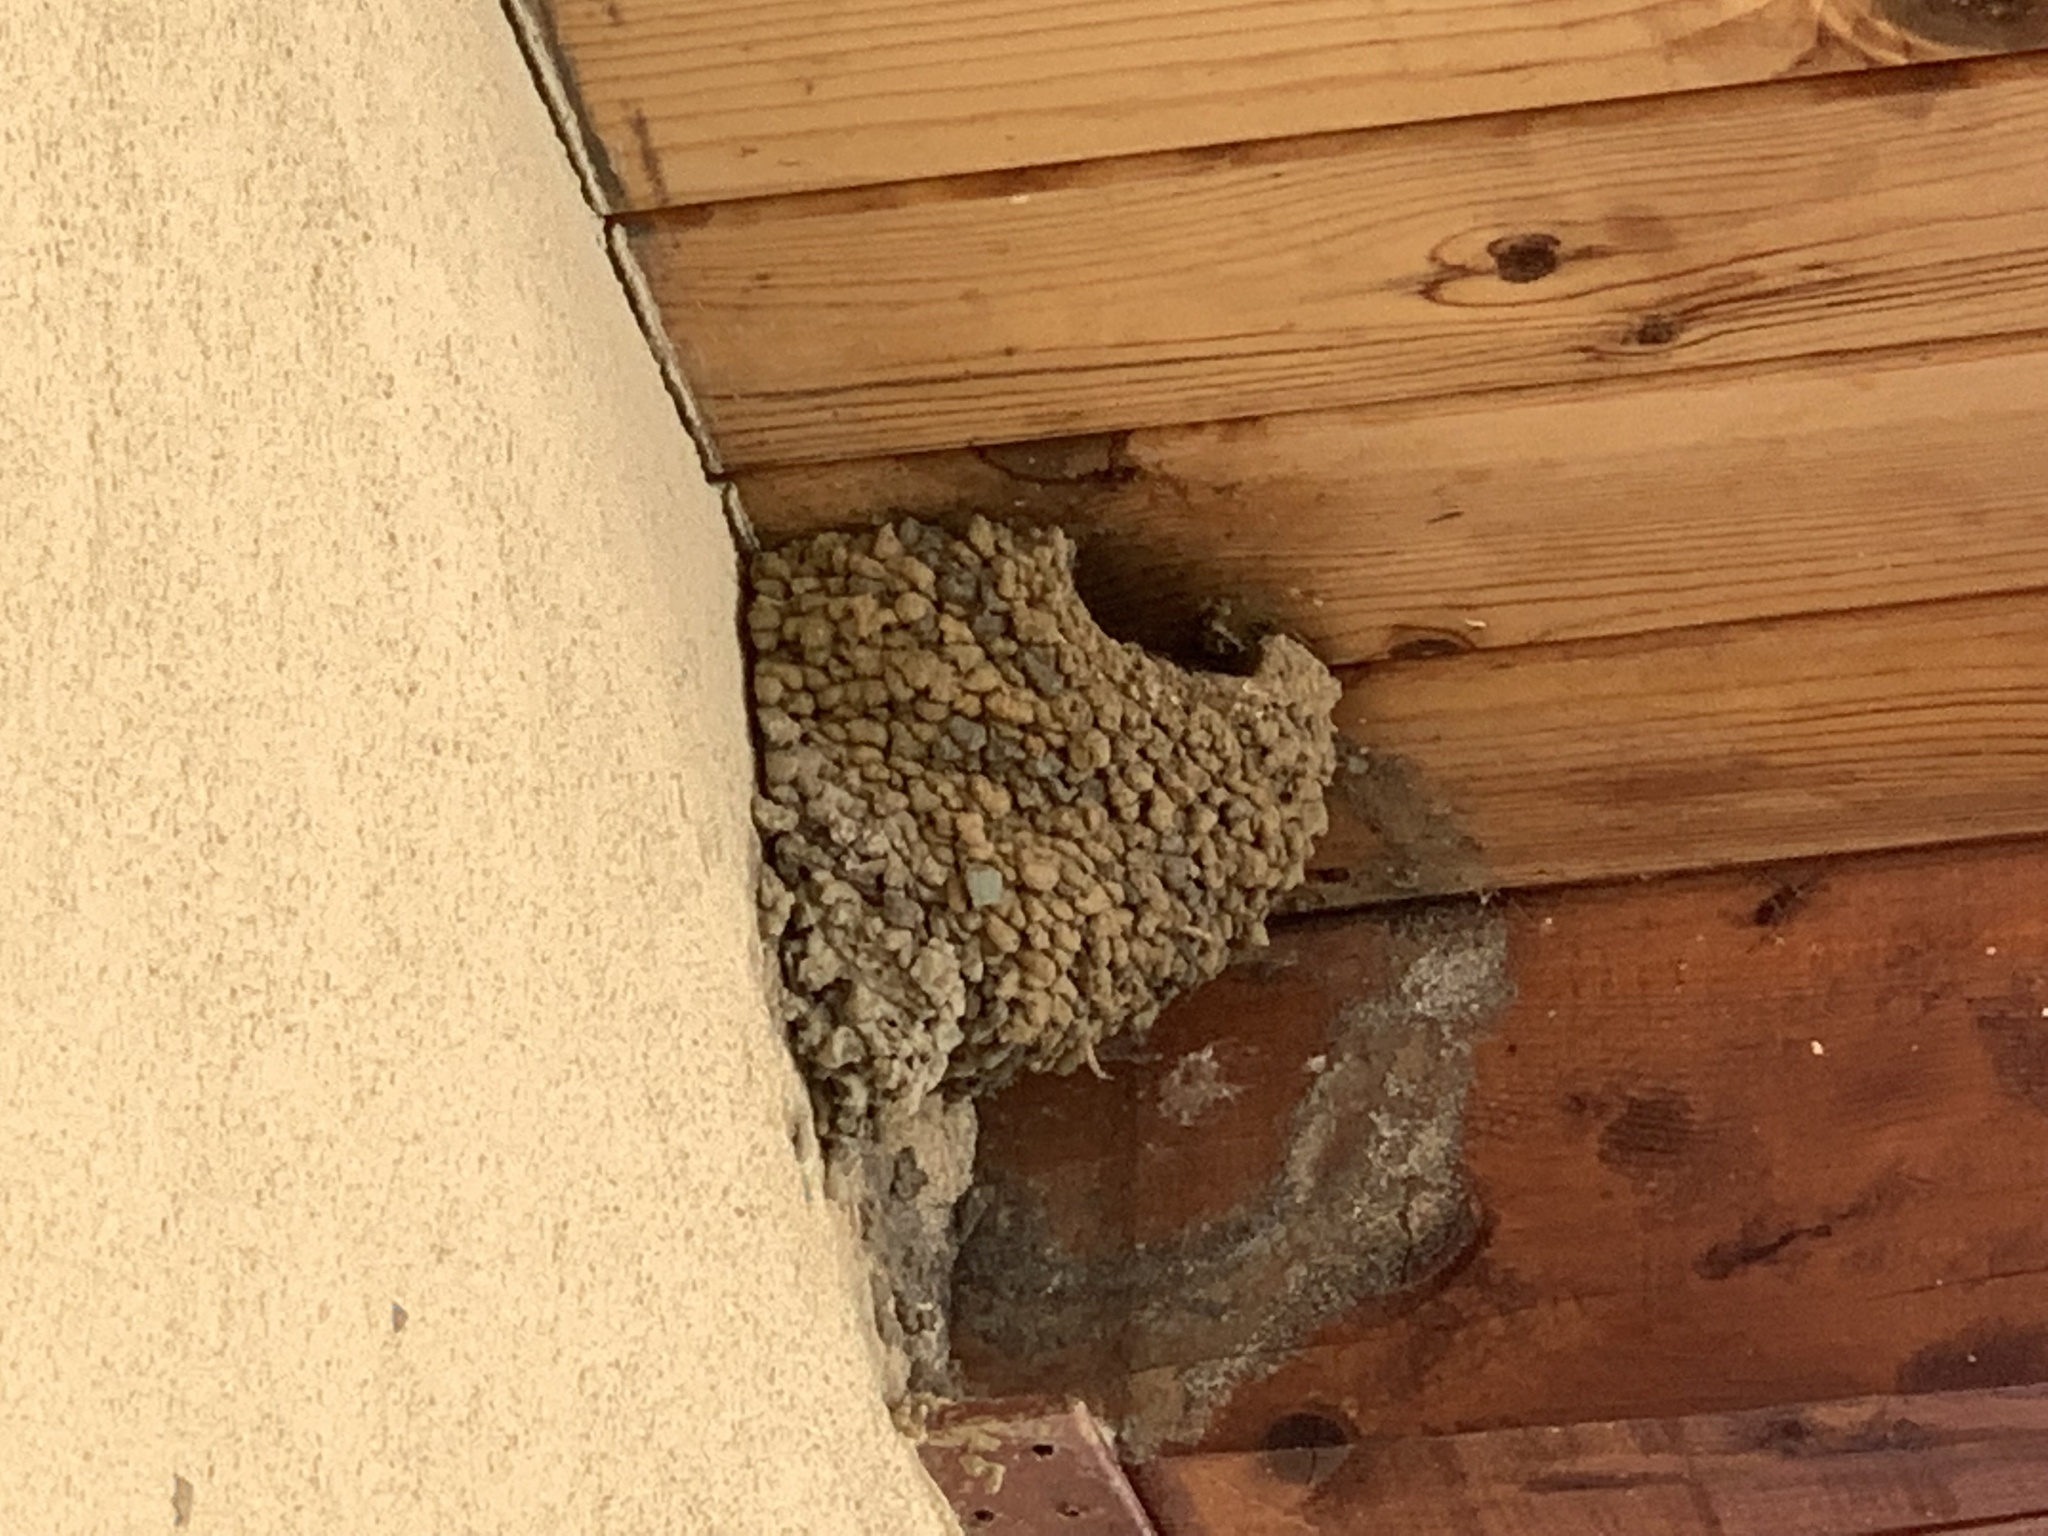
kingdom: Animalia
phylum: Chordata
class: Aves
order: Passeriformes
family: Hirundinidae
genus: Delichon
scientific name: Delichon urbicum
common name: Common house martin
